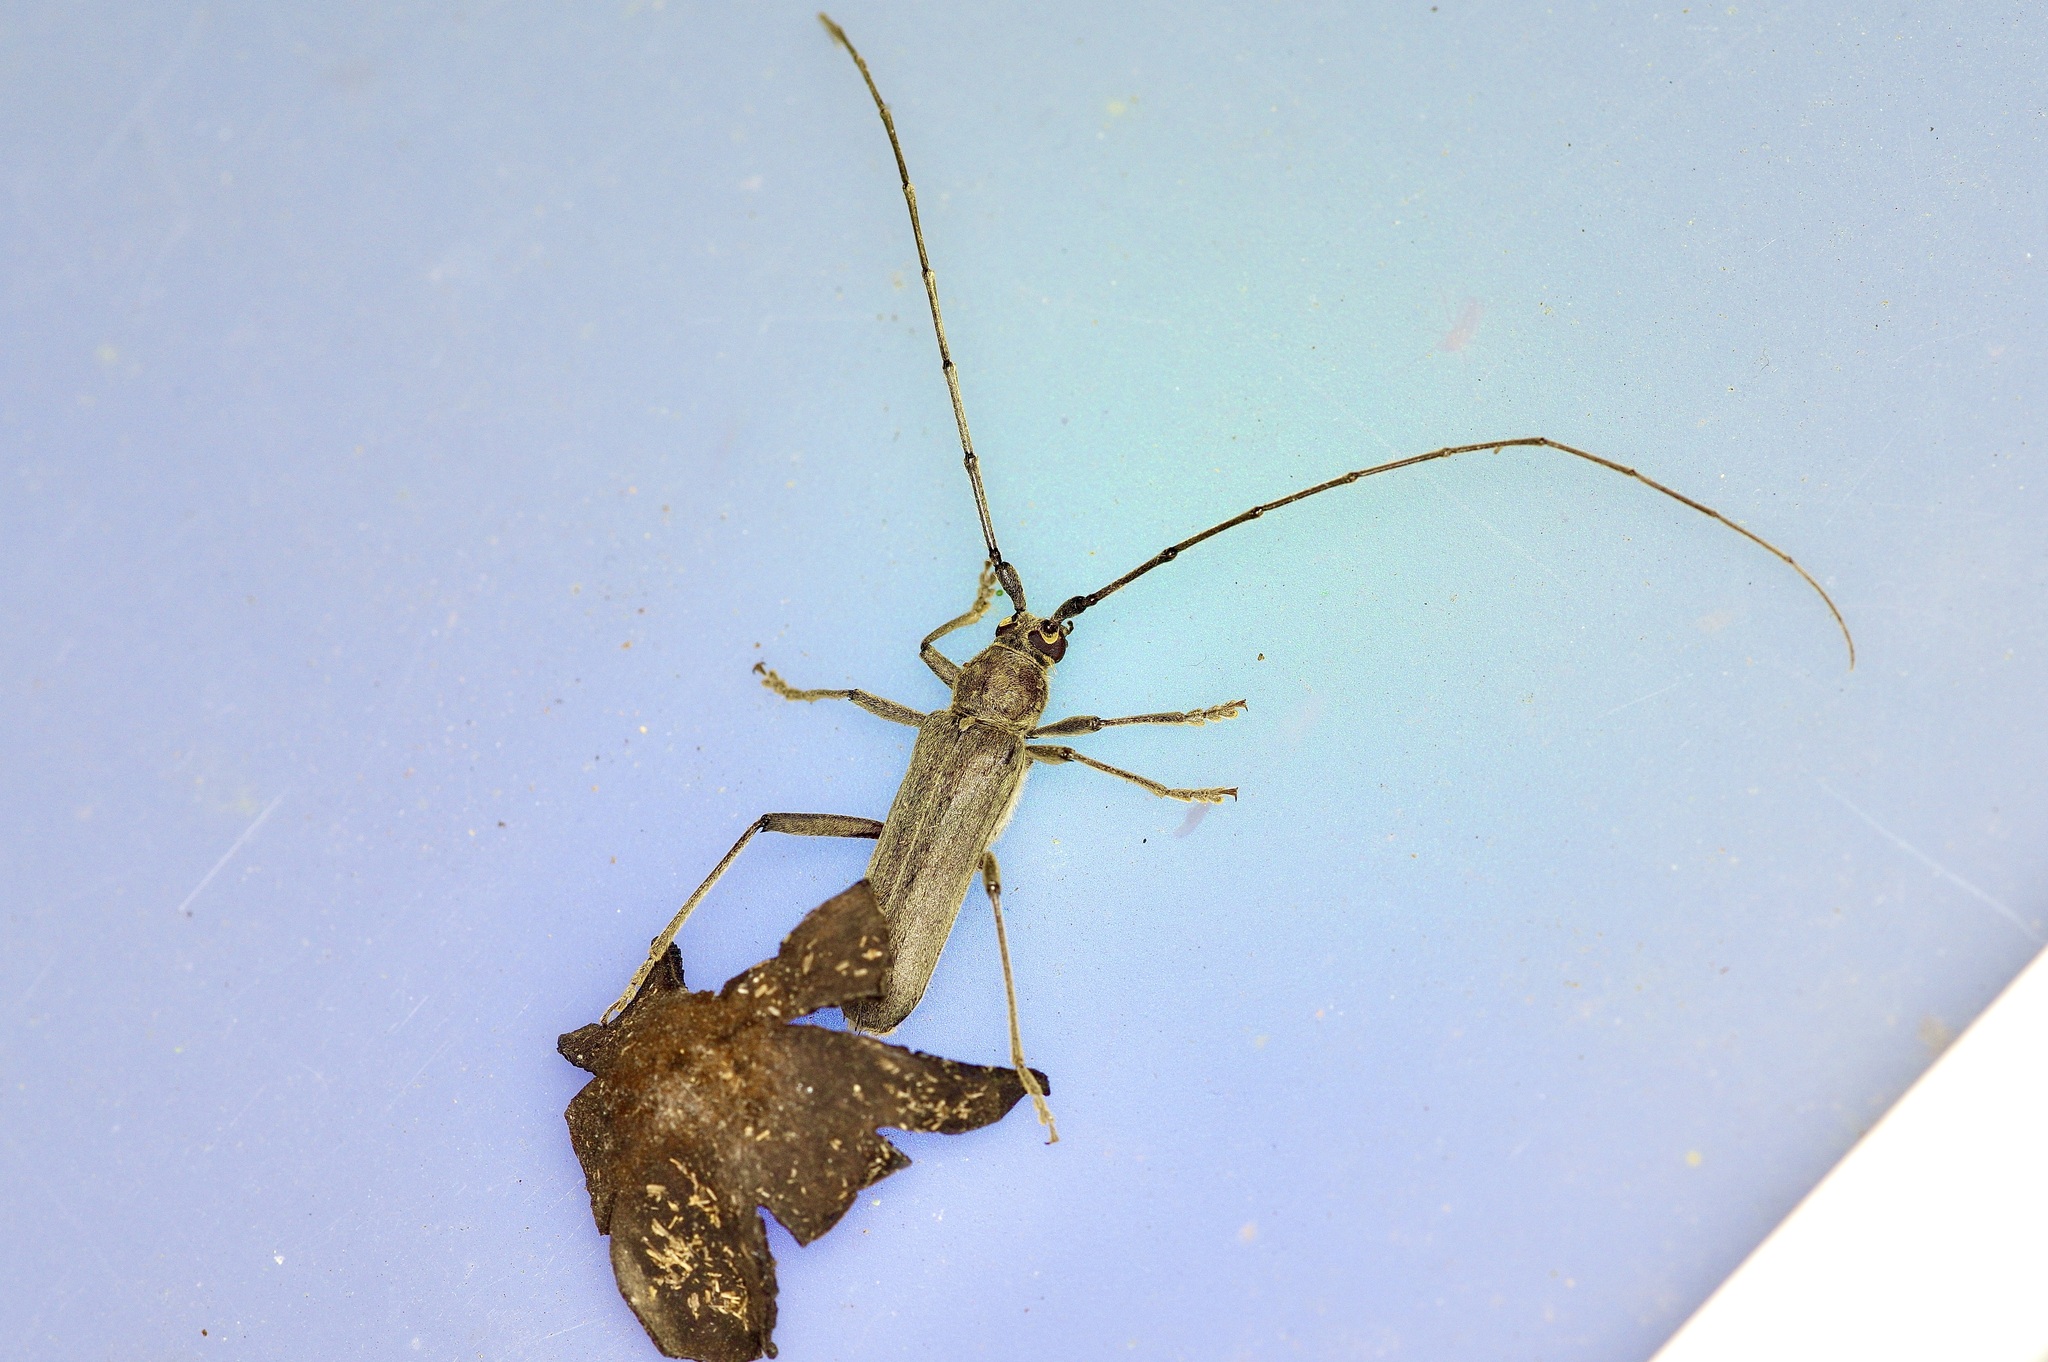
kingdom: Animalia
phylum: Arthropoda
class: Insecta
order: Coleoptera
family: Cerambycidae
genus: Knulliana
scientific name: Knulliana cincta
